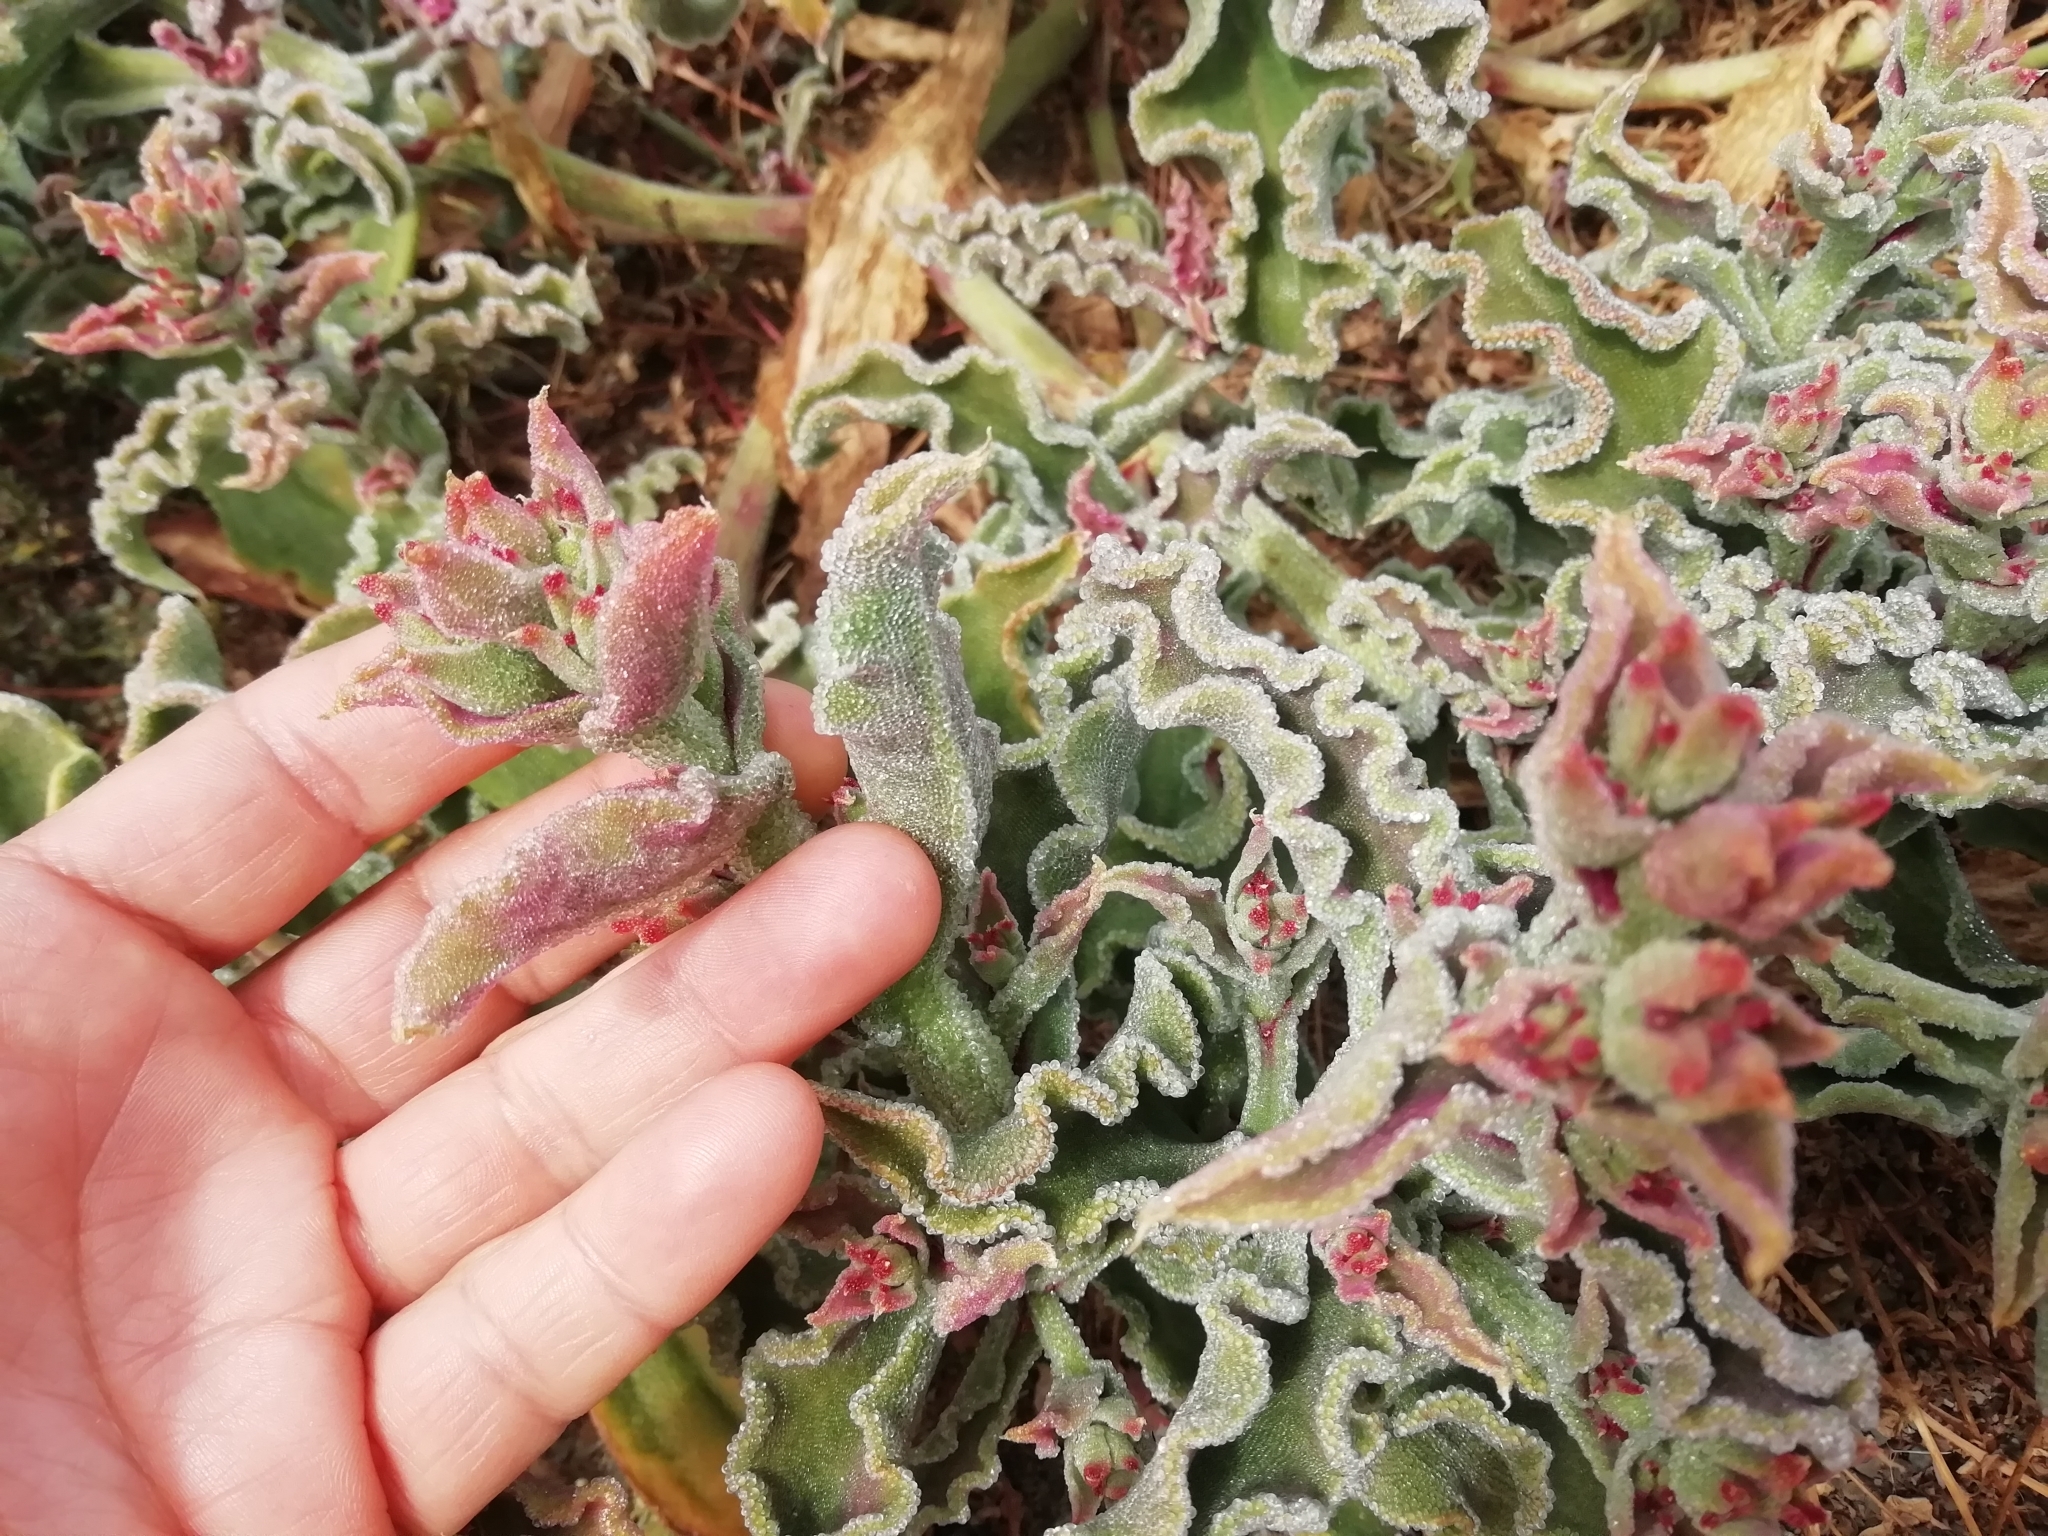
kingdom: Plantae
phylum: Tracheophyta
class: Magnoliopsida
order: Caryophyllales
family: Aizoaceae
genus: Mesembryanthemum
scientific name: Mesembryanthemum crystallinum
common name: Common iceplant
